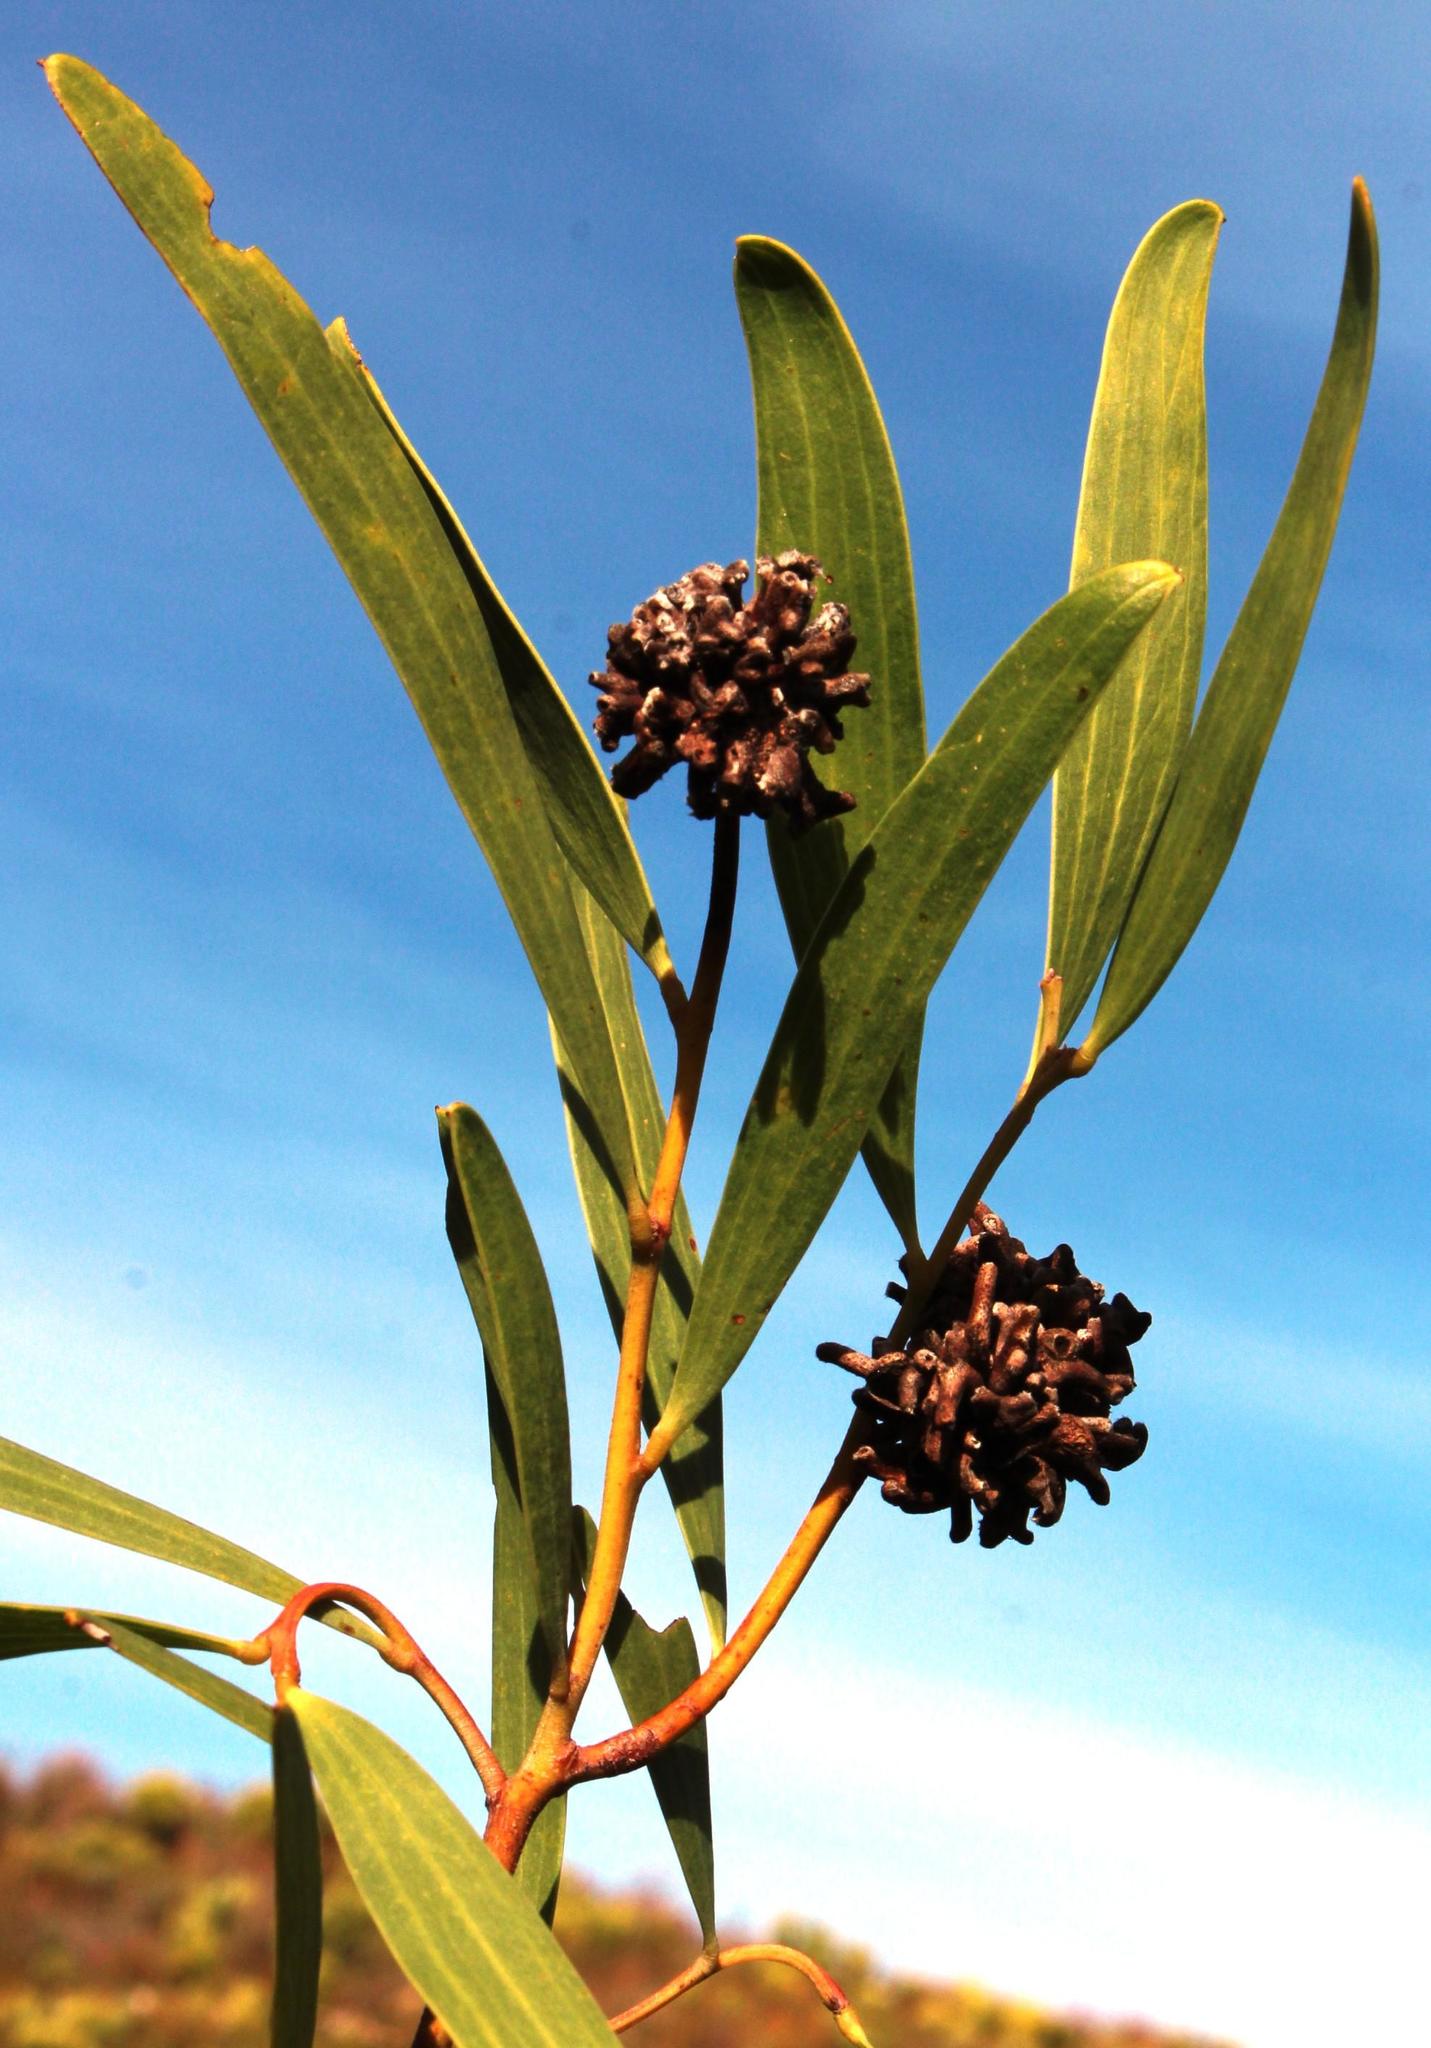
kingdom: Plantae
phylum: Tracheophyta
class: Magnoliopsida
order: Fabales
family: Fabaceae
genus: Acacia
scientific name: Acacia cyclops
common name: Coastal wattle
